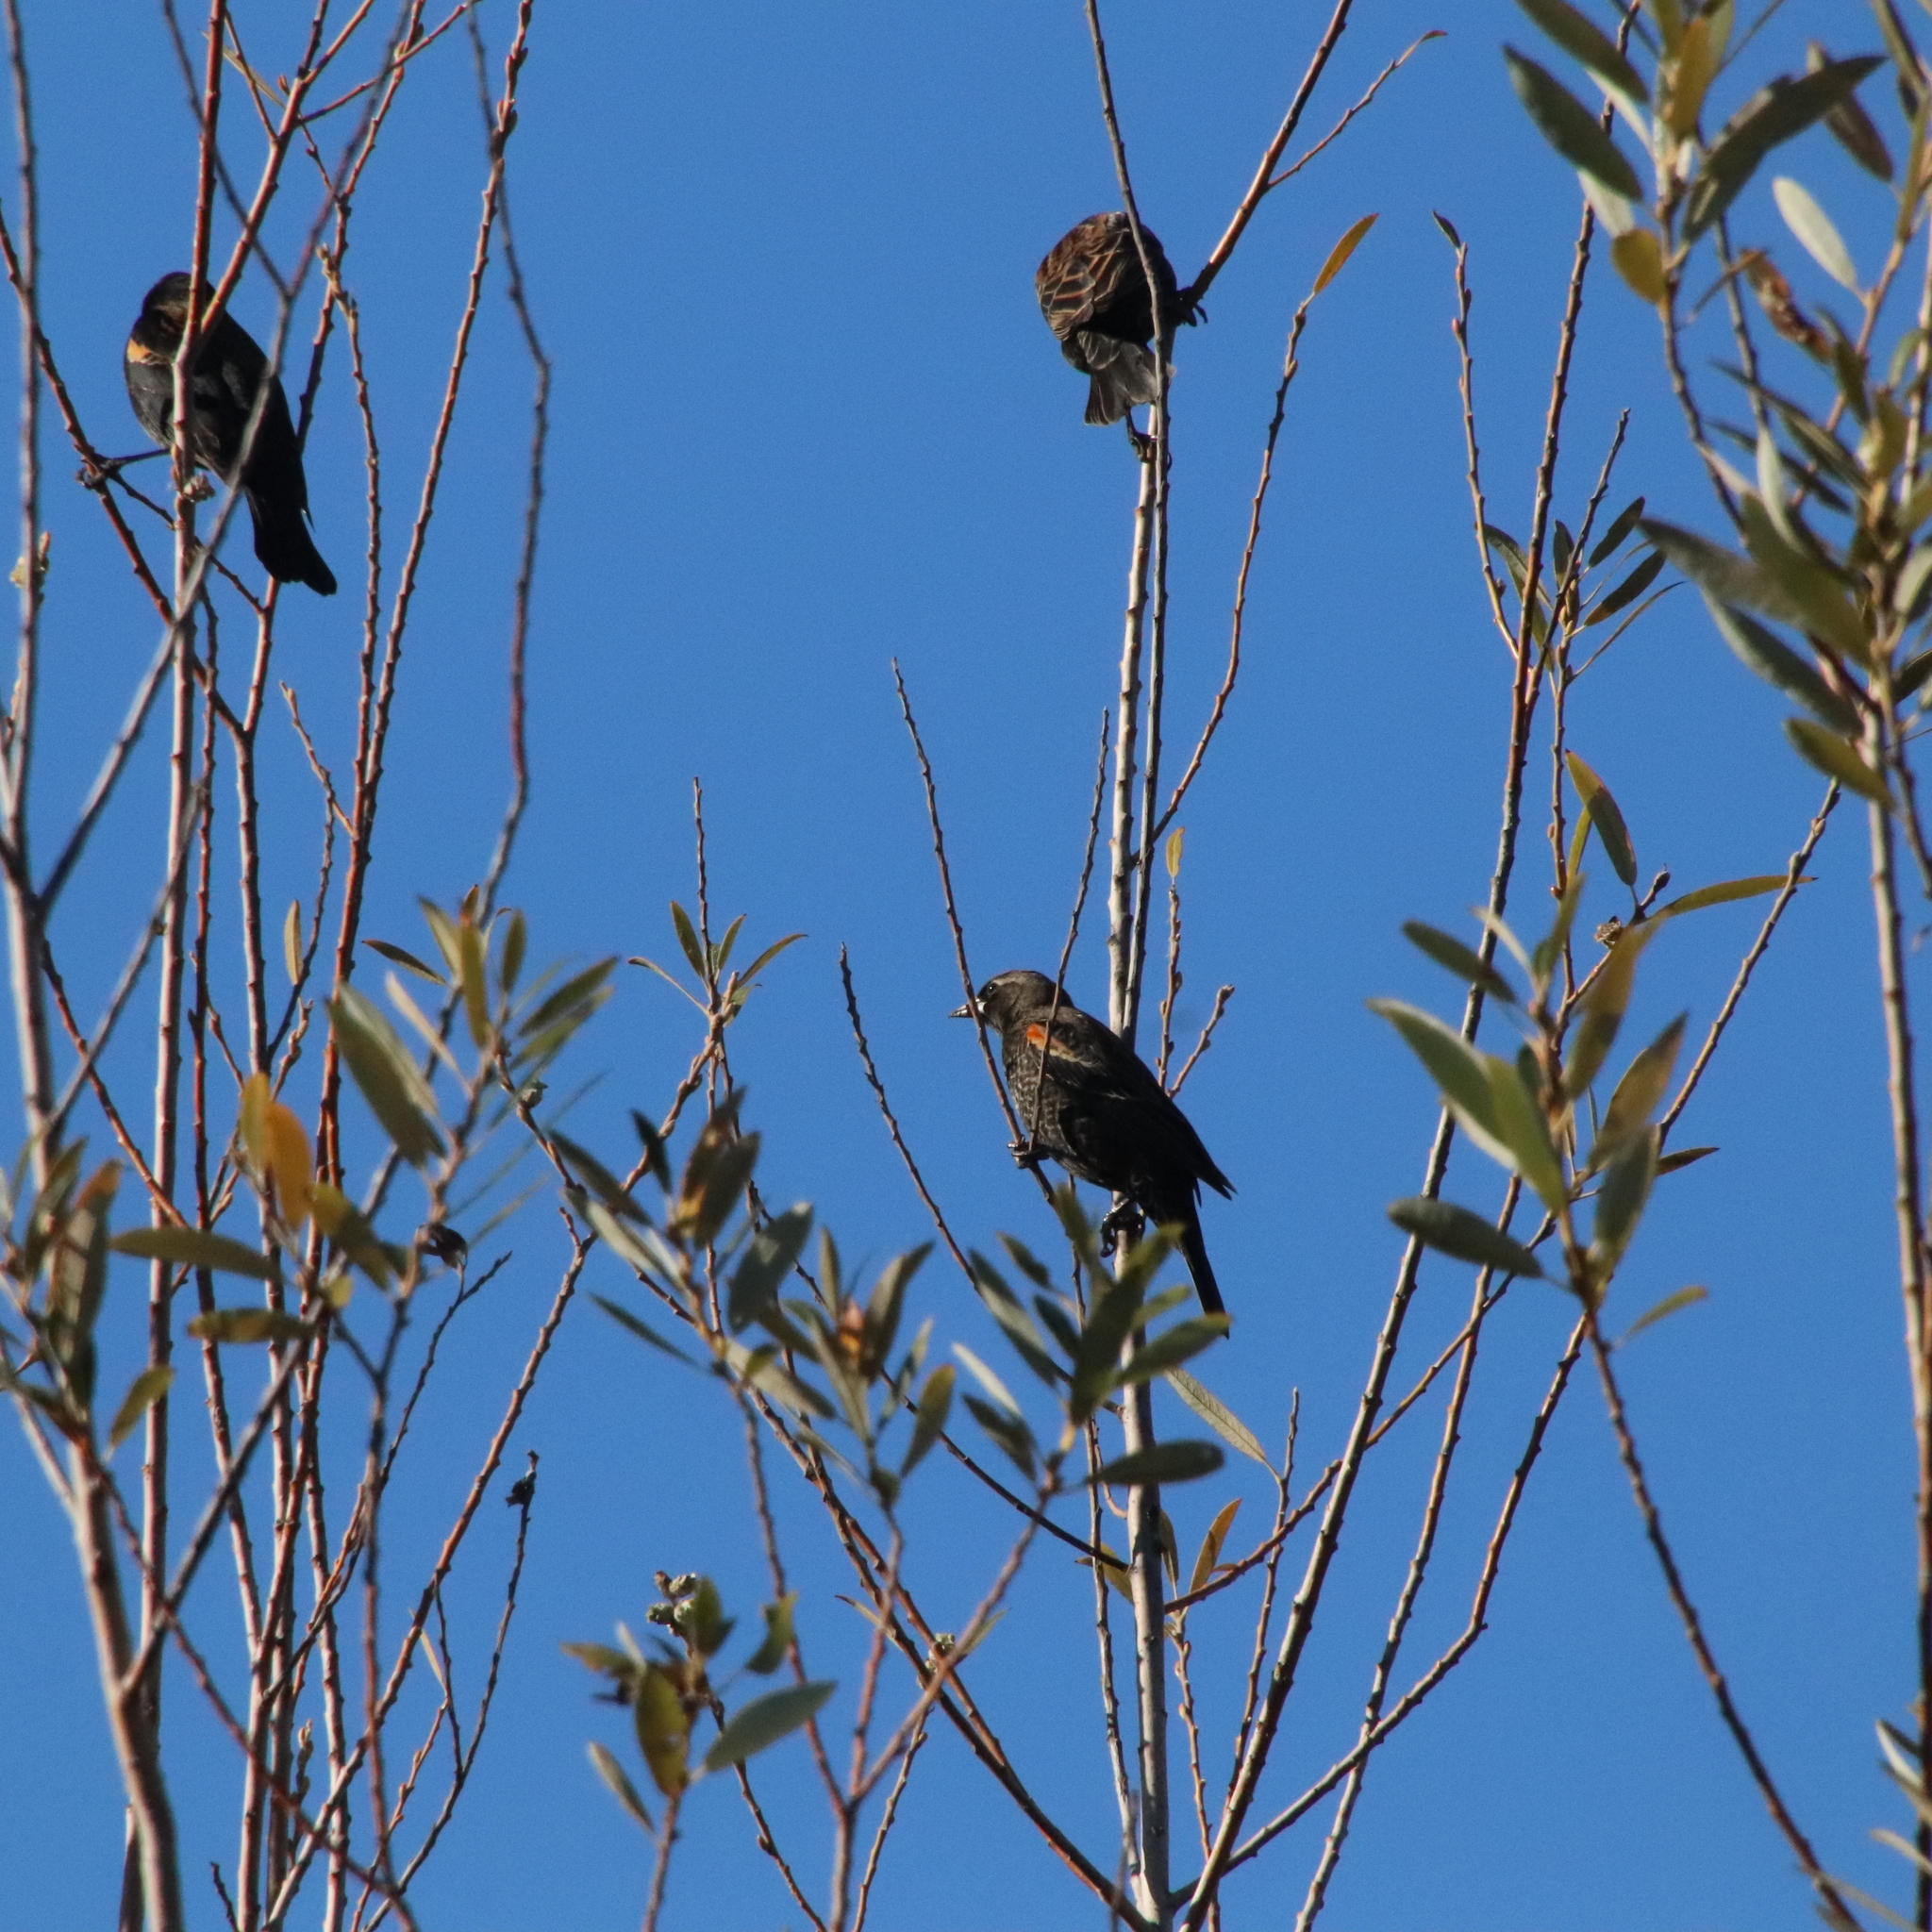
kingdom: Animalia
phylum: Chordata
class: Aves
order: Passeriformes
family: Icteridae
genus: Agelaius
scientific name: Agelaius phoeniceus
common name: Red-winged blackbird
